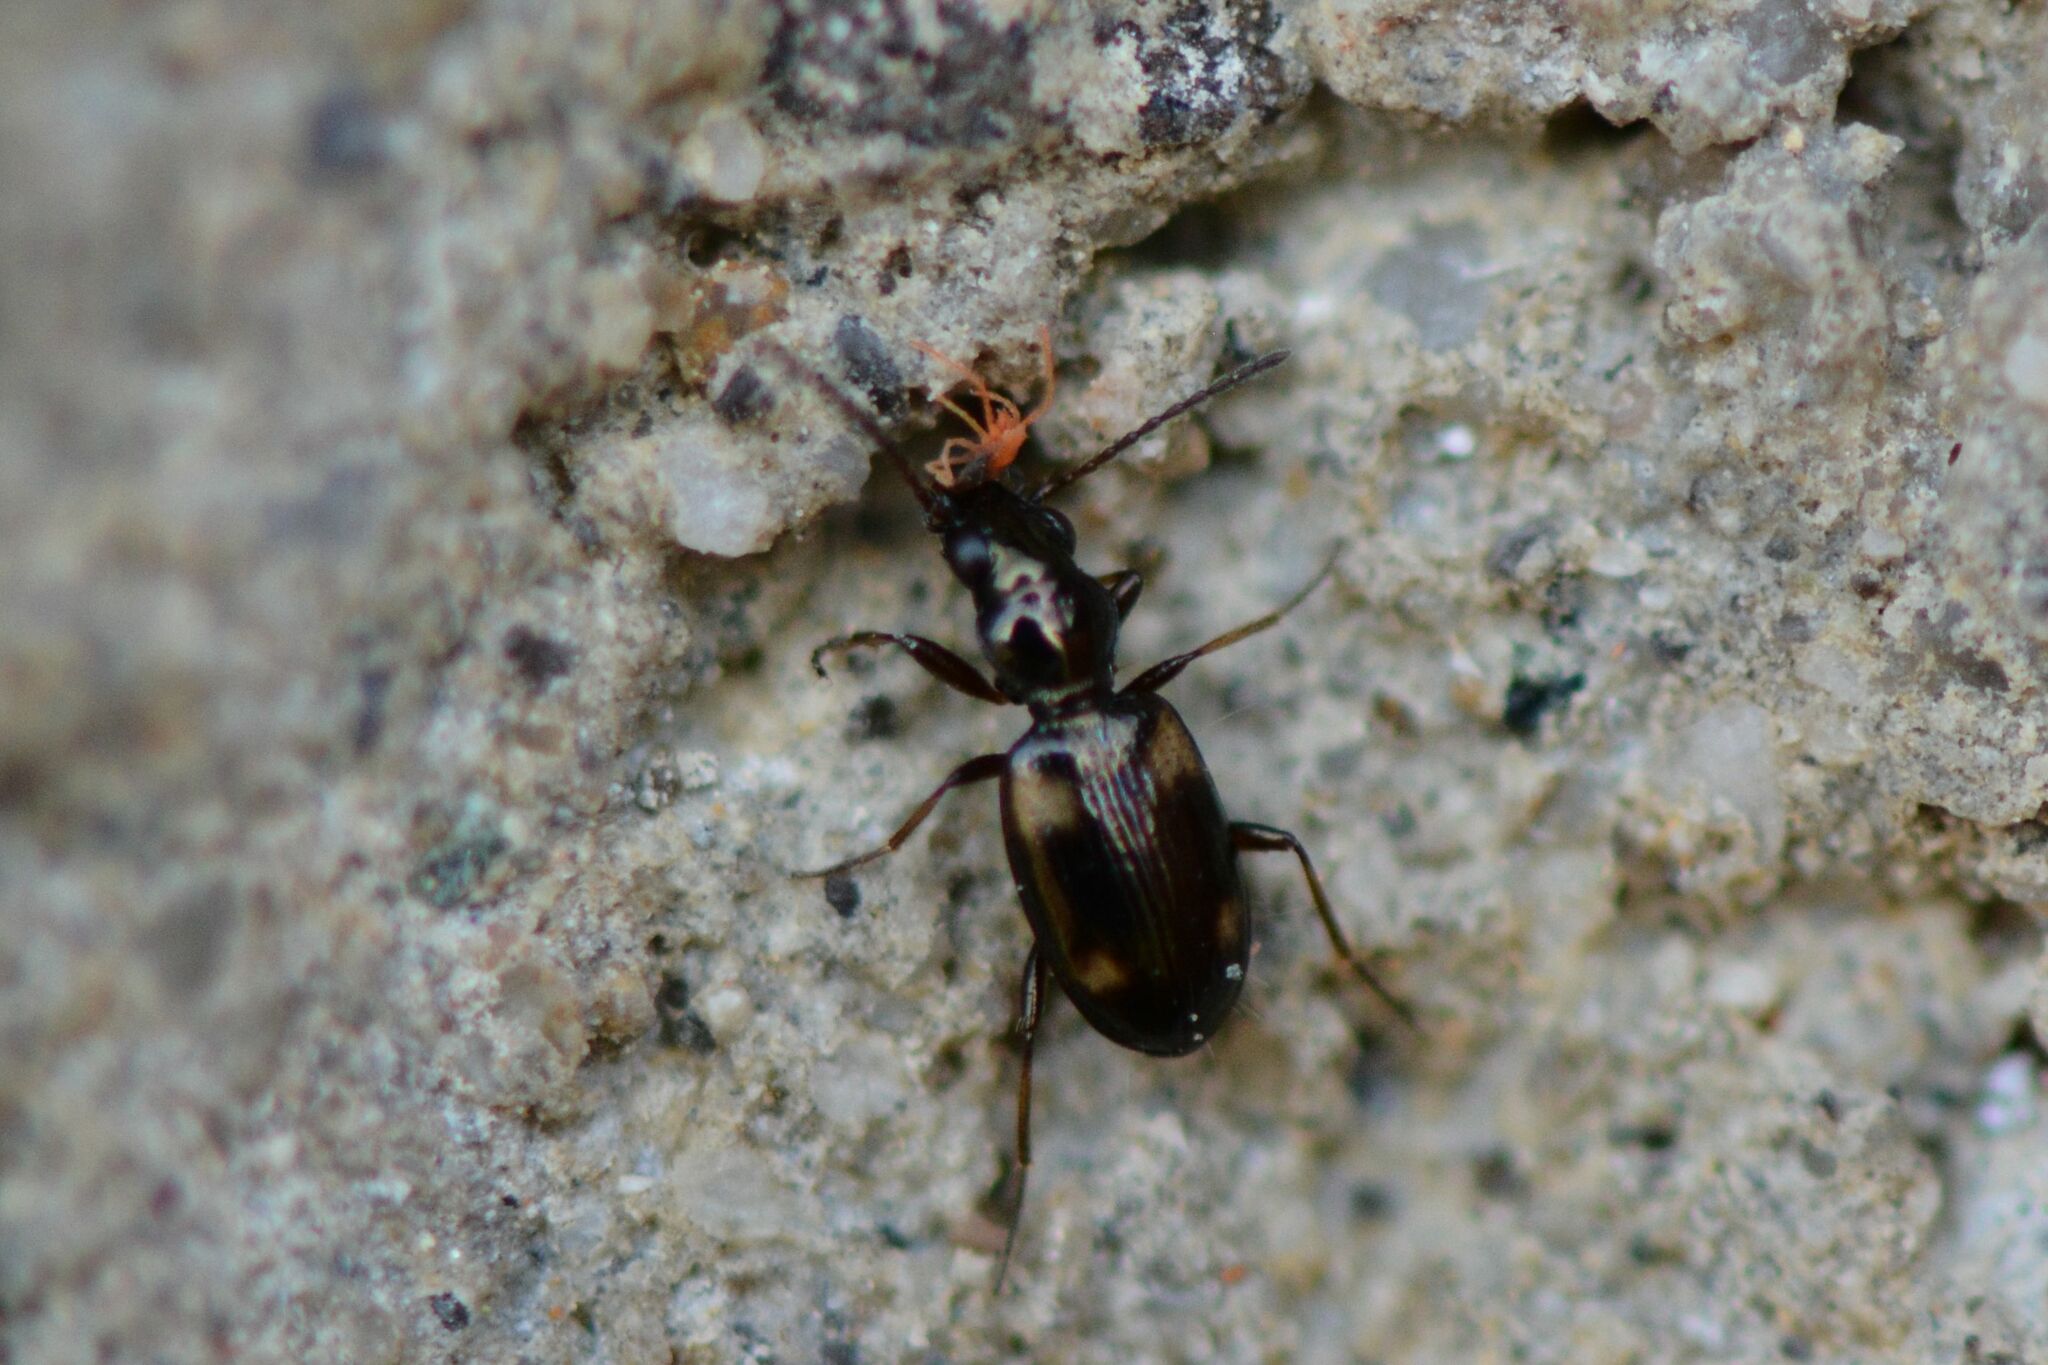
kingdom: Animalia
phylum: Arthropoda
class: Insecta
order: Coleoptera
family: Carabidae
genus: Bembidion
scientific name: Bembidion quadrimaculatum
